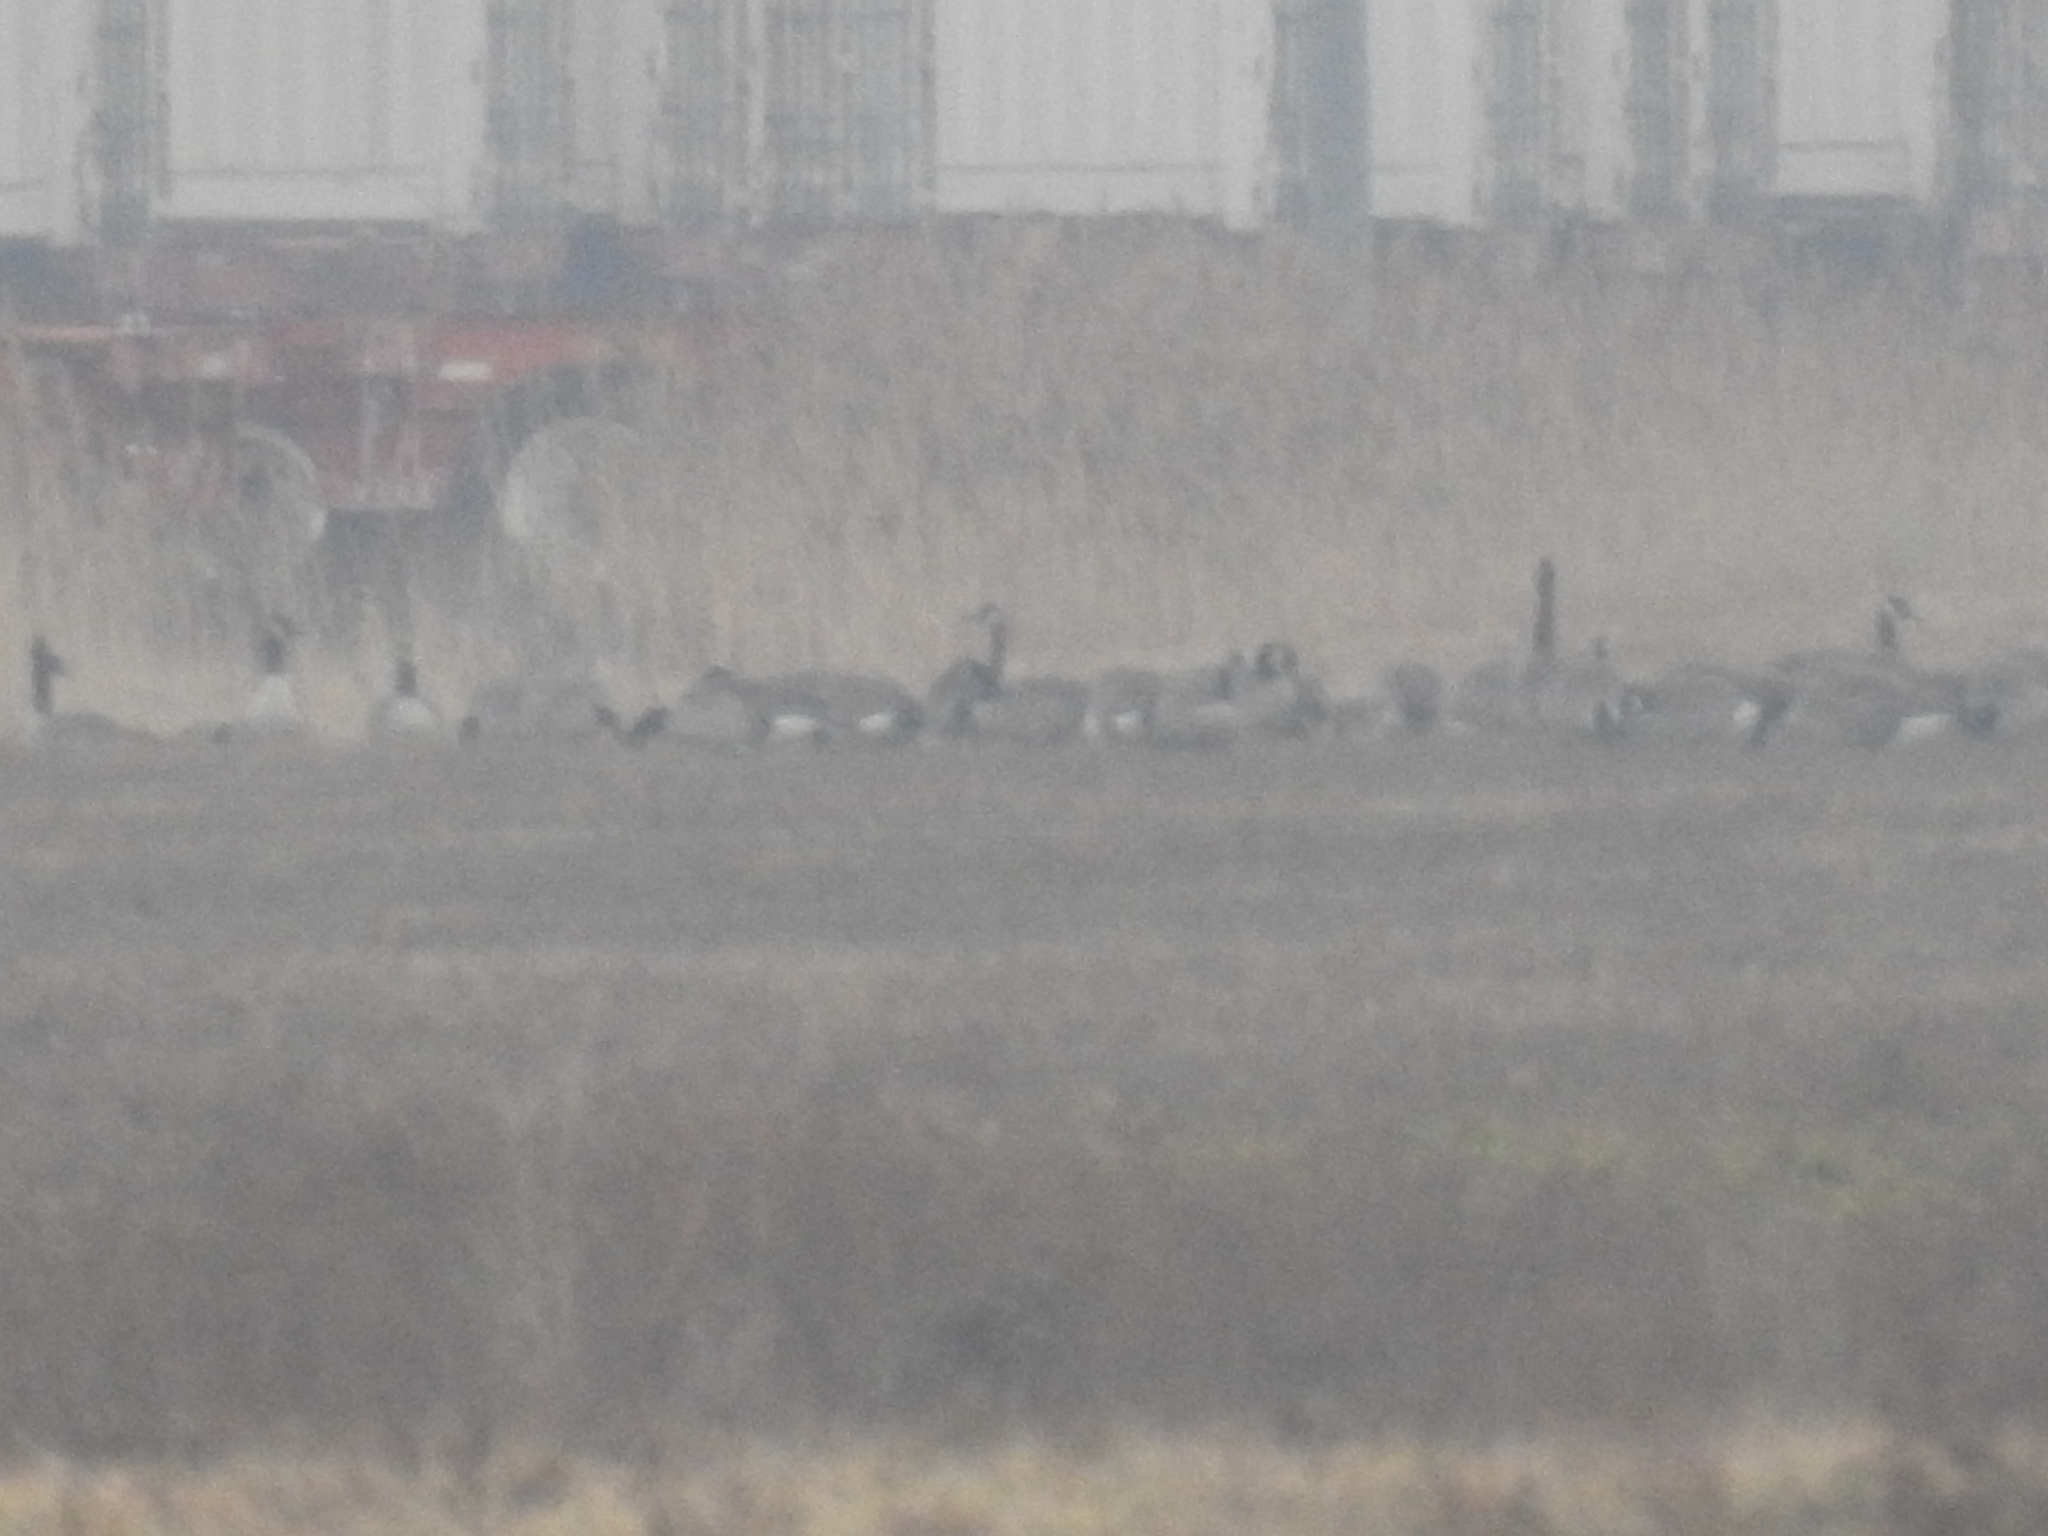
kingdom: Animalia
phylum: Chordata
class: Aves
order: Anseriformes
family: Anatidae
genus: Branta
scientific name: Branta canadensis
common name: Canada goose
